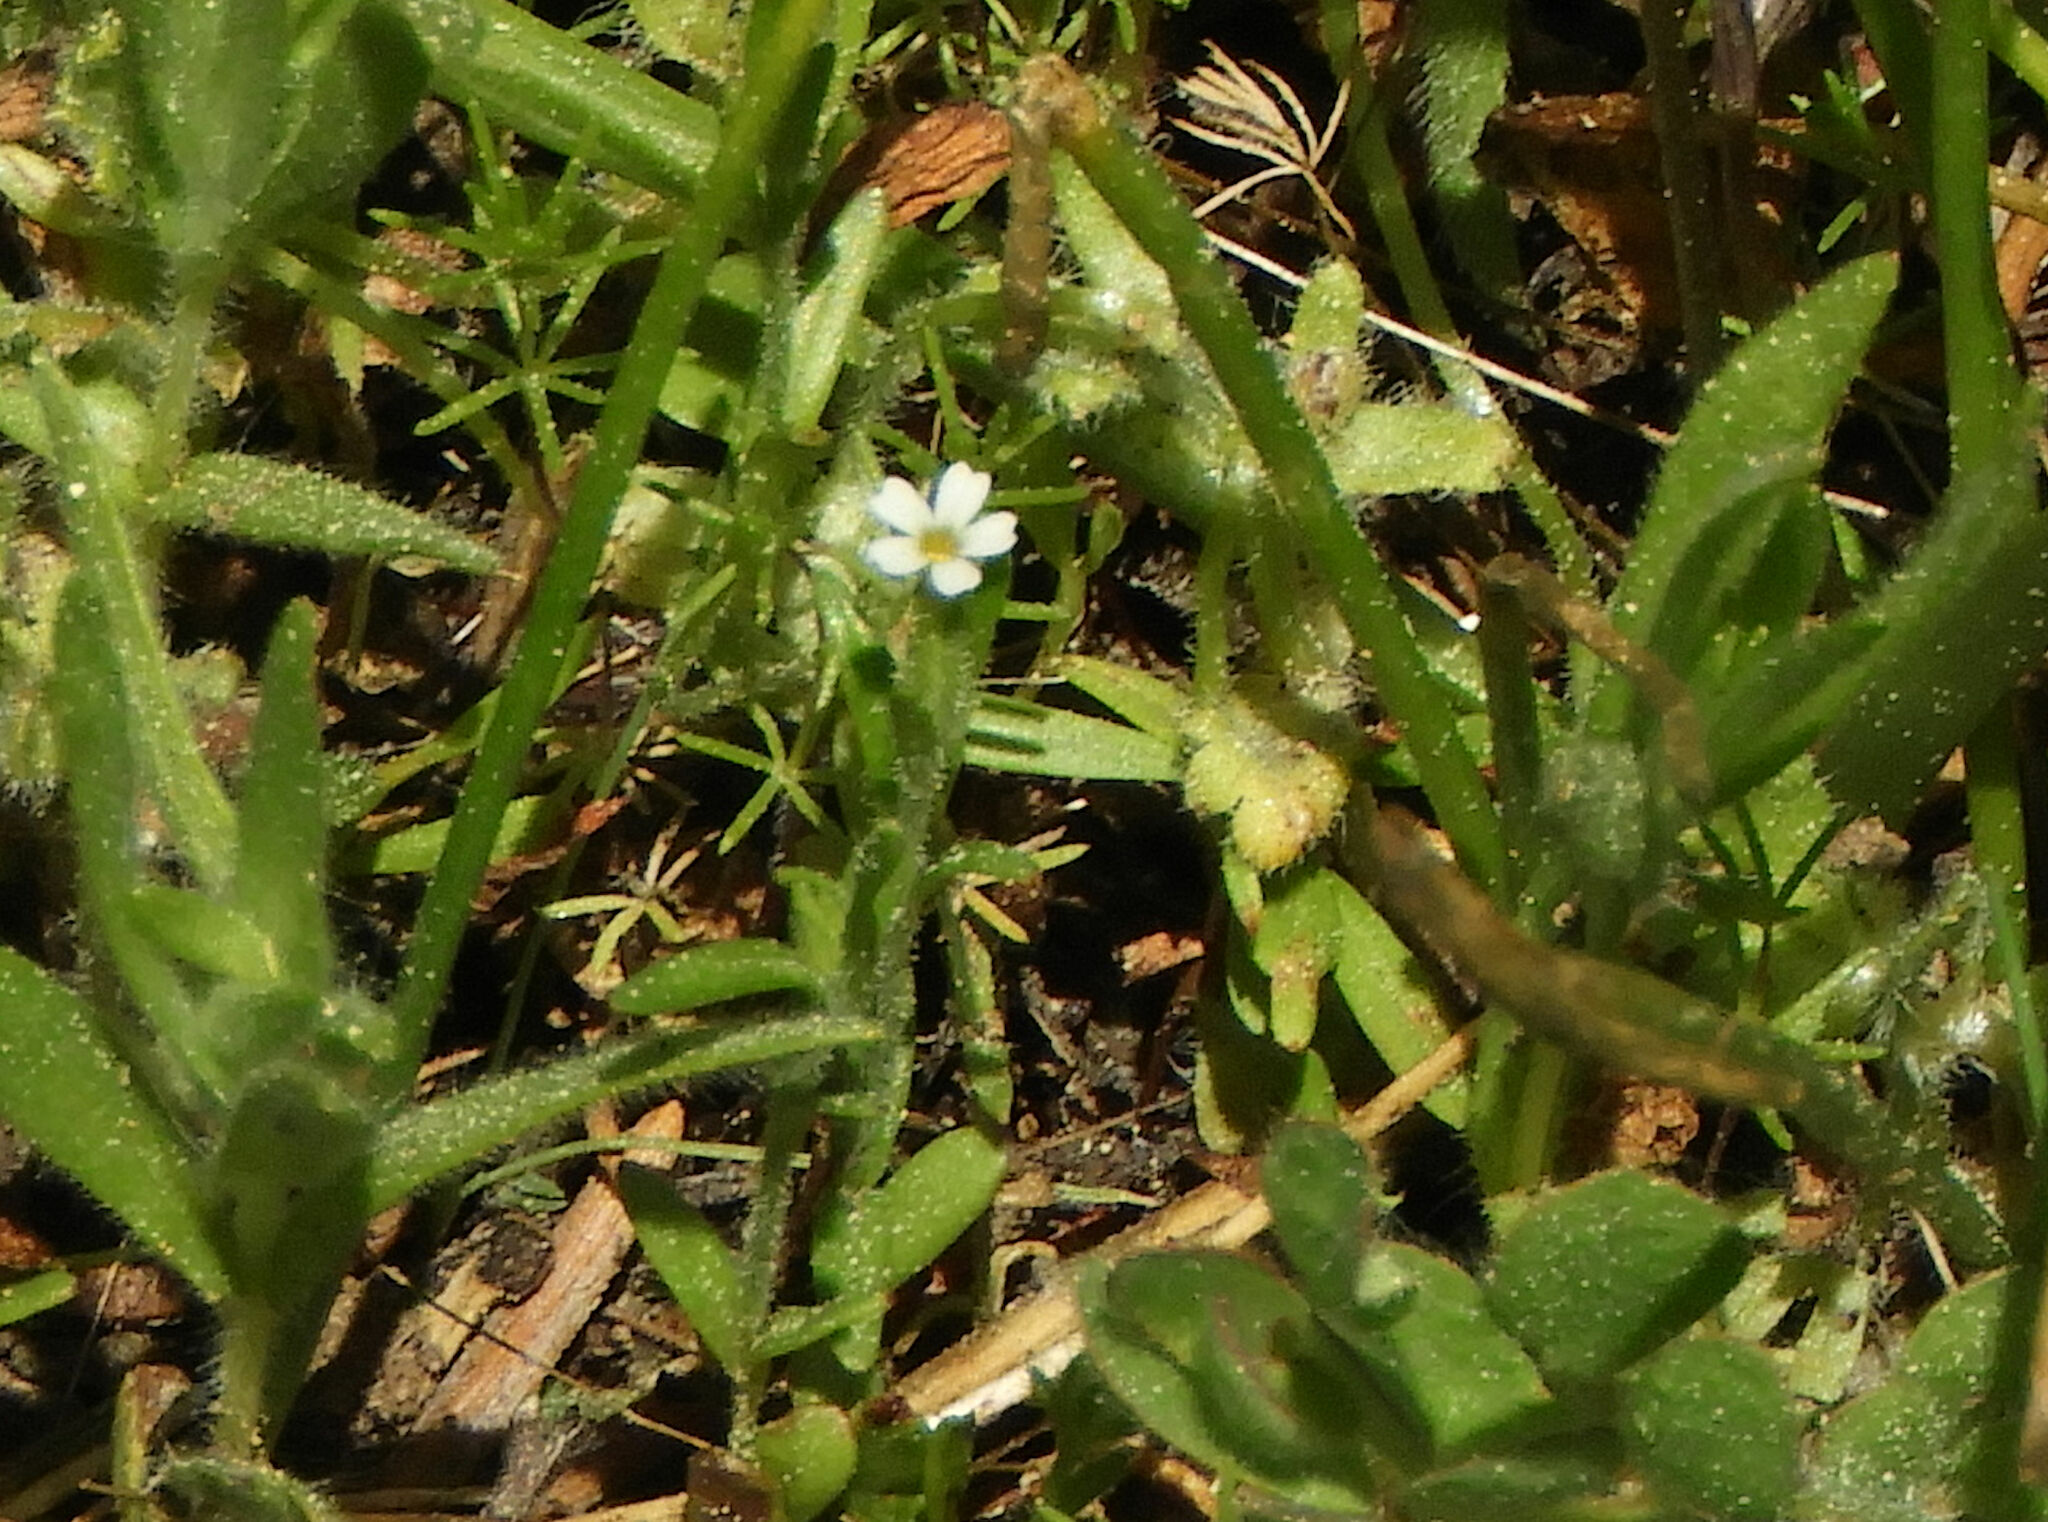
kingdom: Plantae
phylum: Tracheophyta
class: Magnoliopsida
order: Ericales
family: Polemoniaceae
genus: Phlox
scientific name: Phlox gracilis
